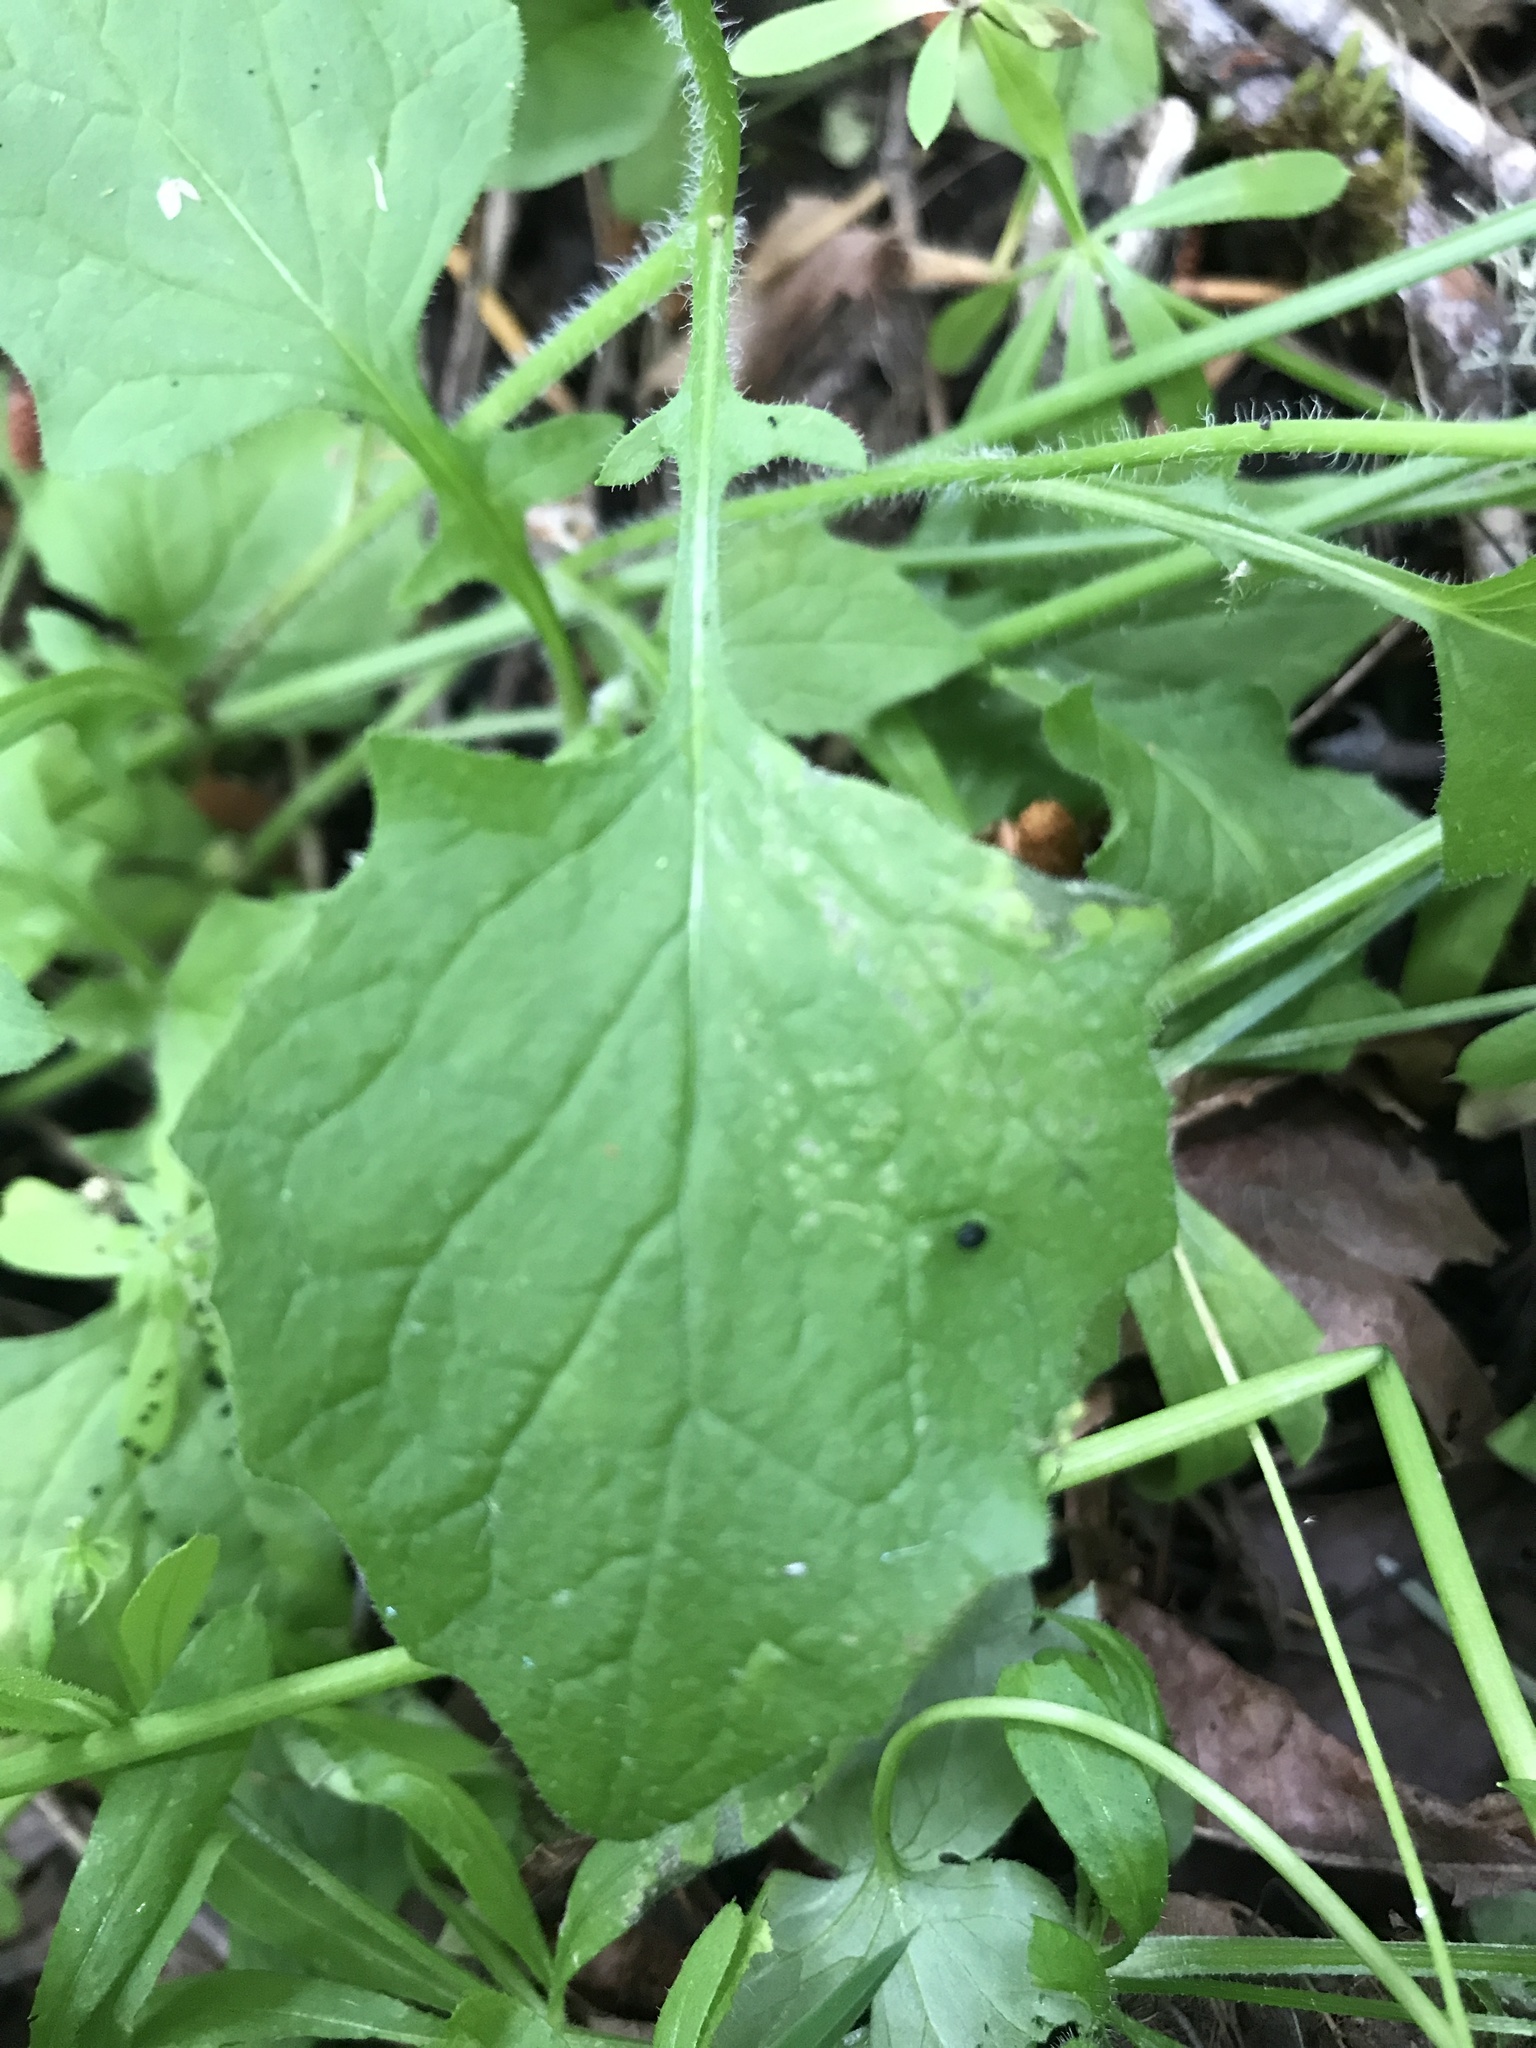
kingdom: Plantae
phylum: Tracheophyta
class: Magnoliopsida
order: Asterales
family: Asteraceae
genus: Lapsana
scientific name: Lapsana communis
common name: Nipplewort
